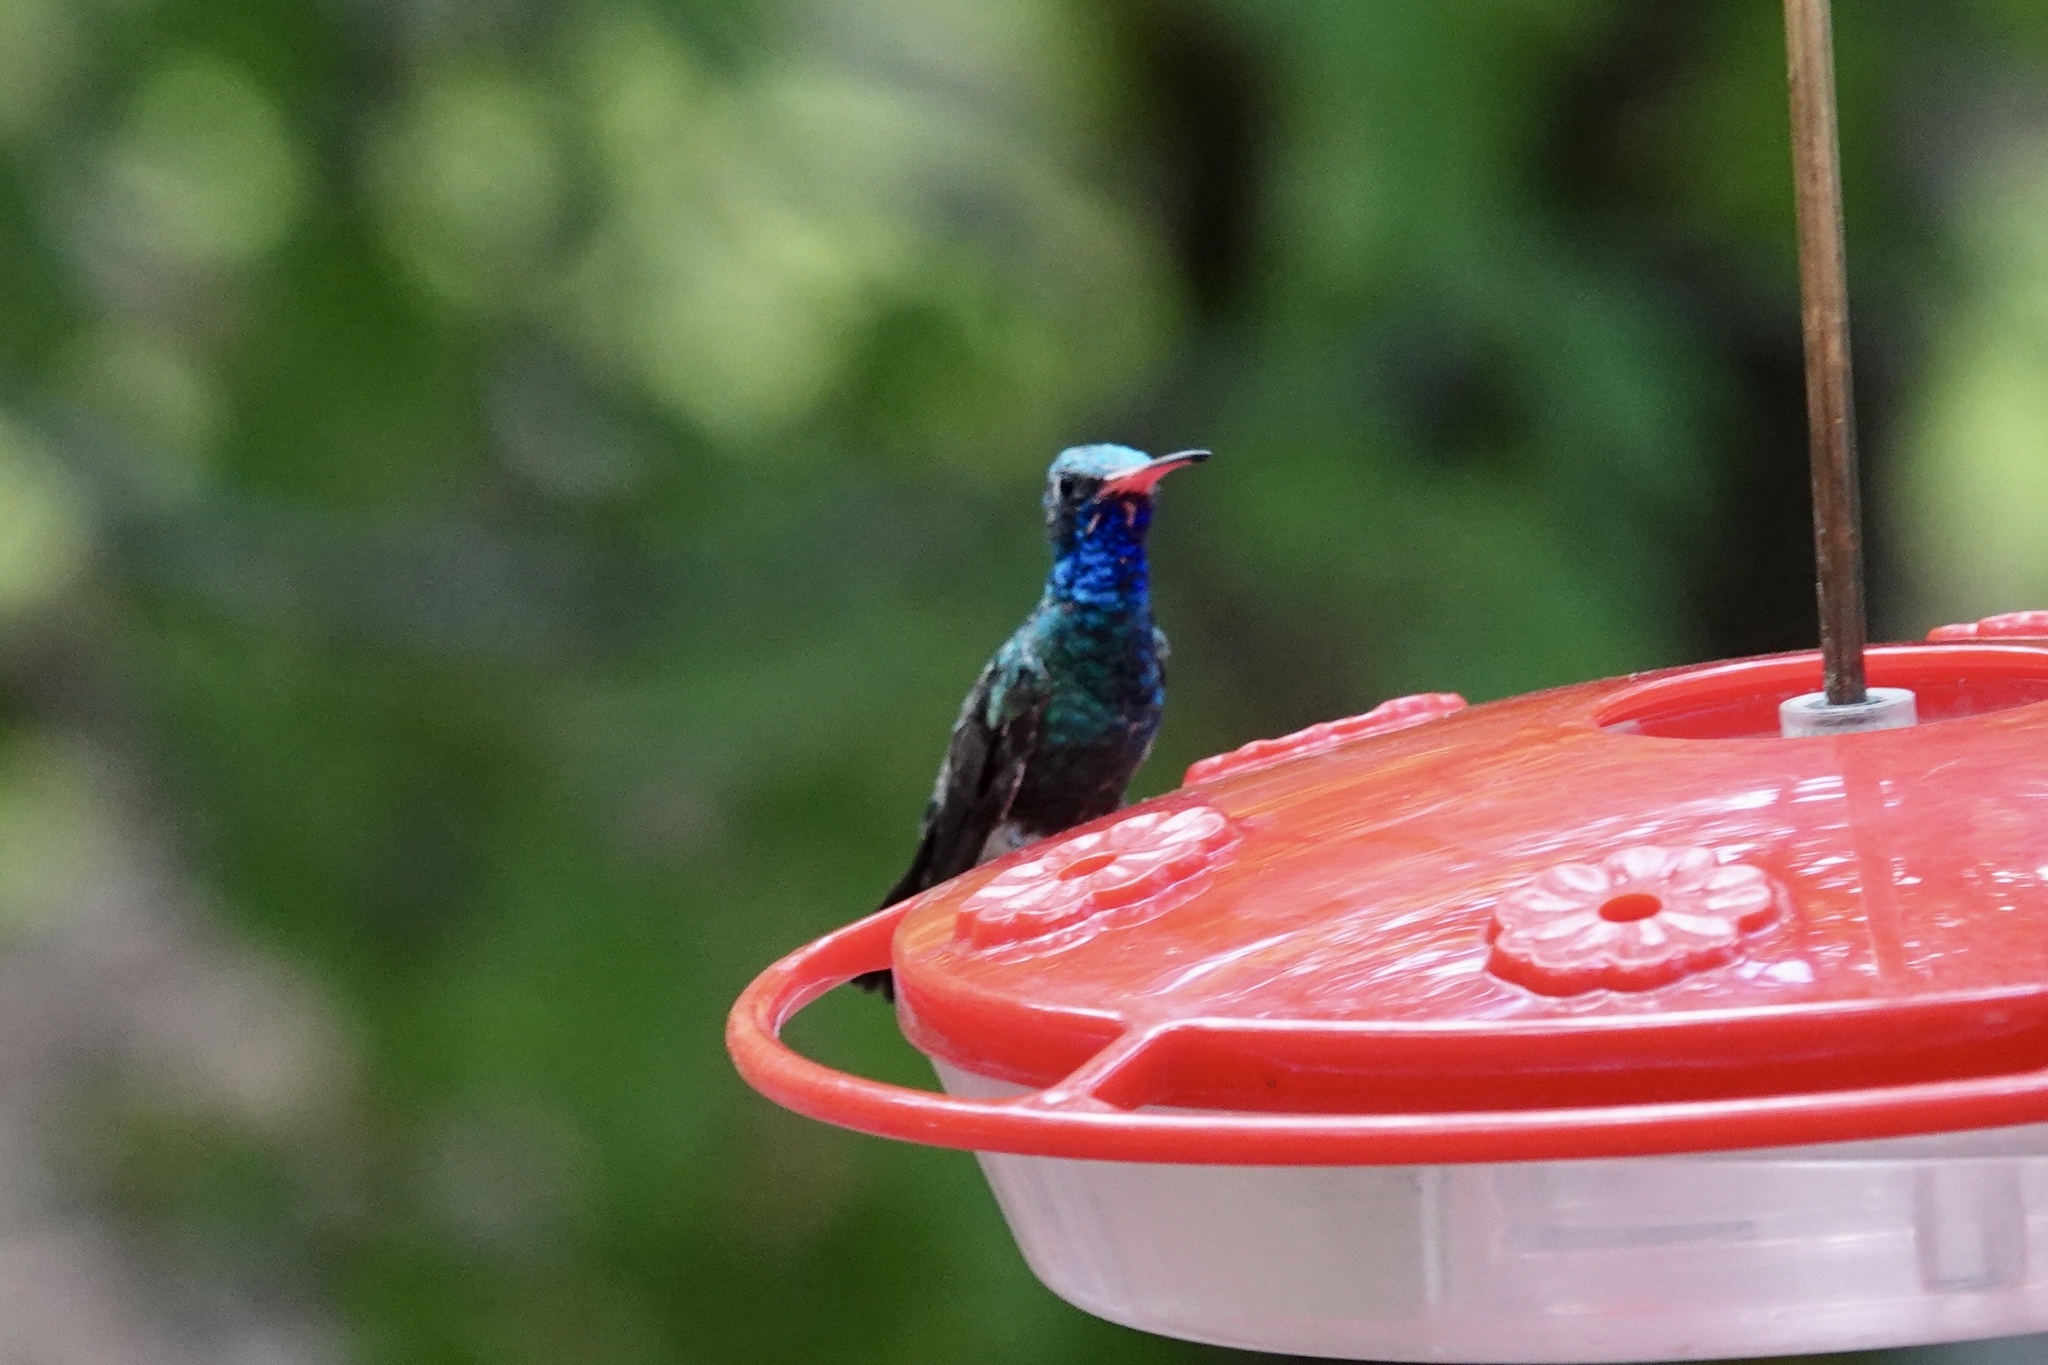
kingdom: Animalia
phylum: Chordata
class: Aves
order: Apodiformes
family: Trochilidae
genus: Cynanthus
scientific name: Cynanthus latirostris
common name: Broad-billed hummingbird
